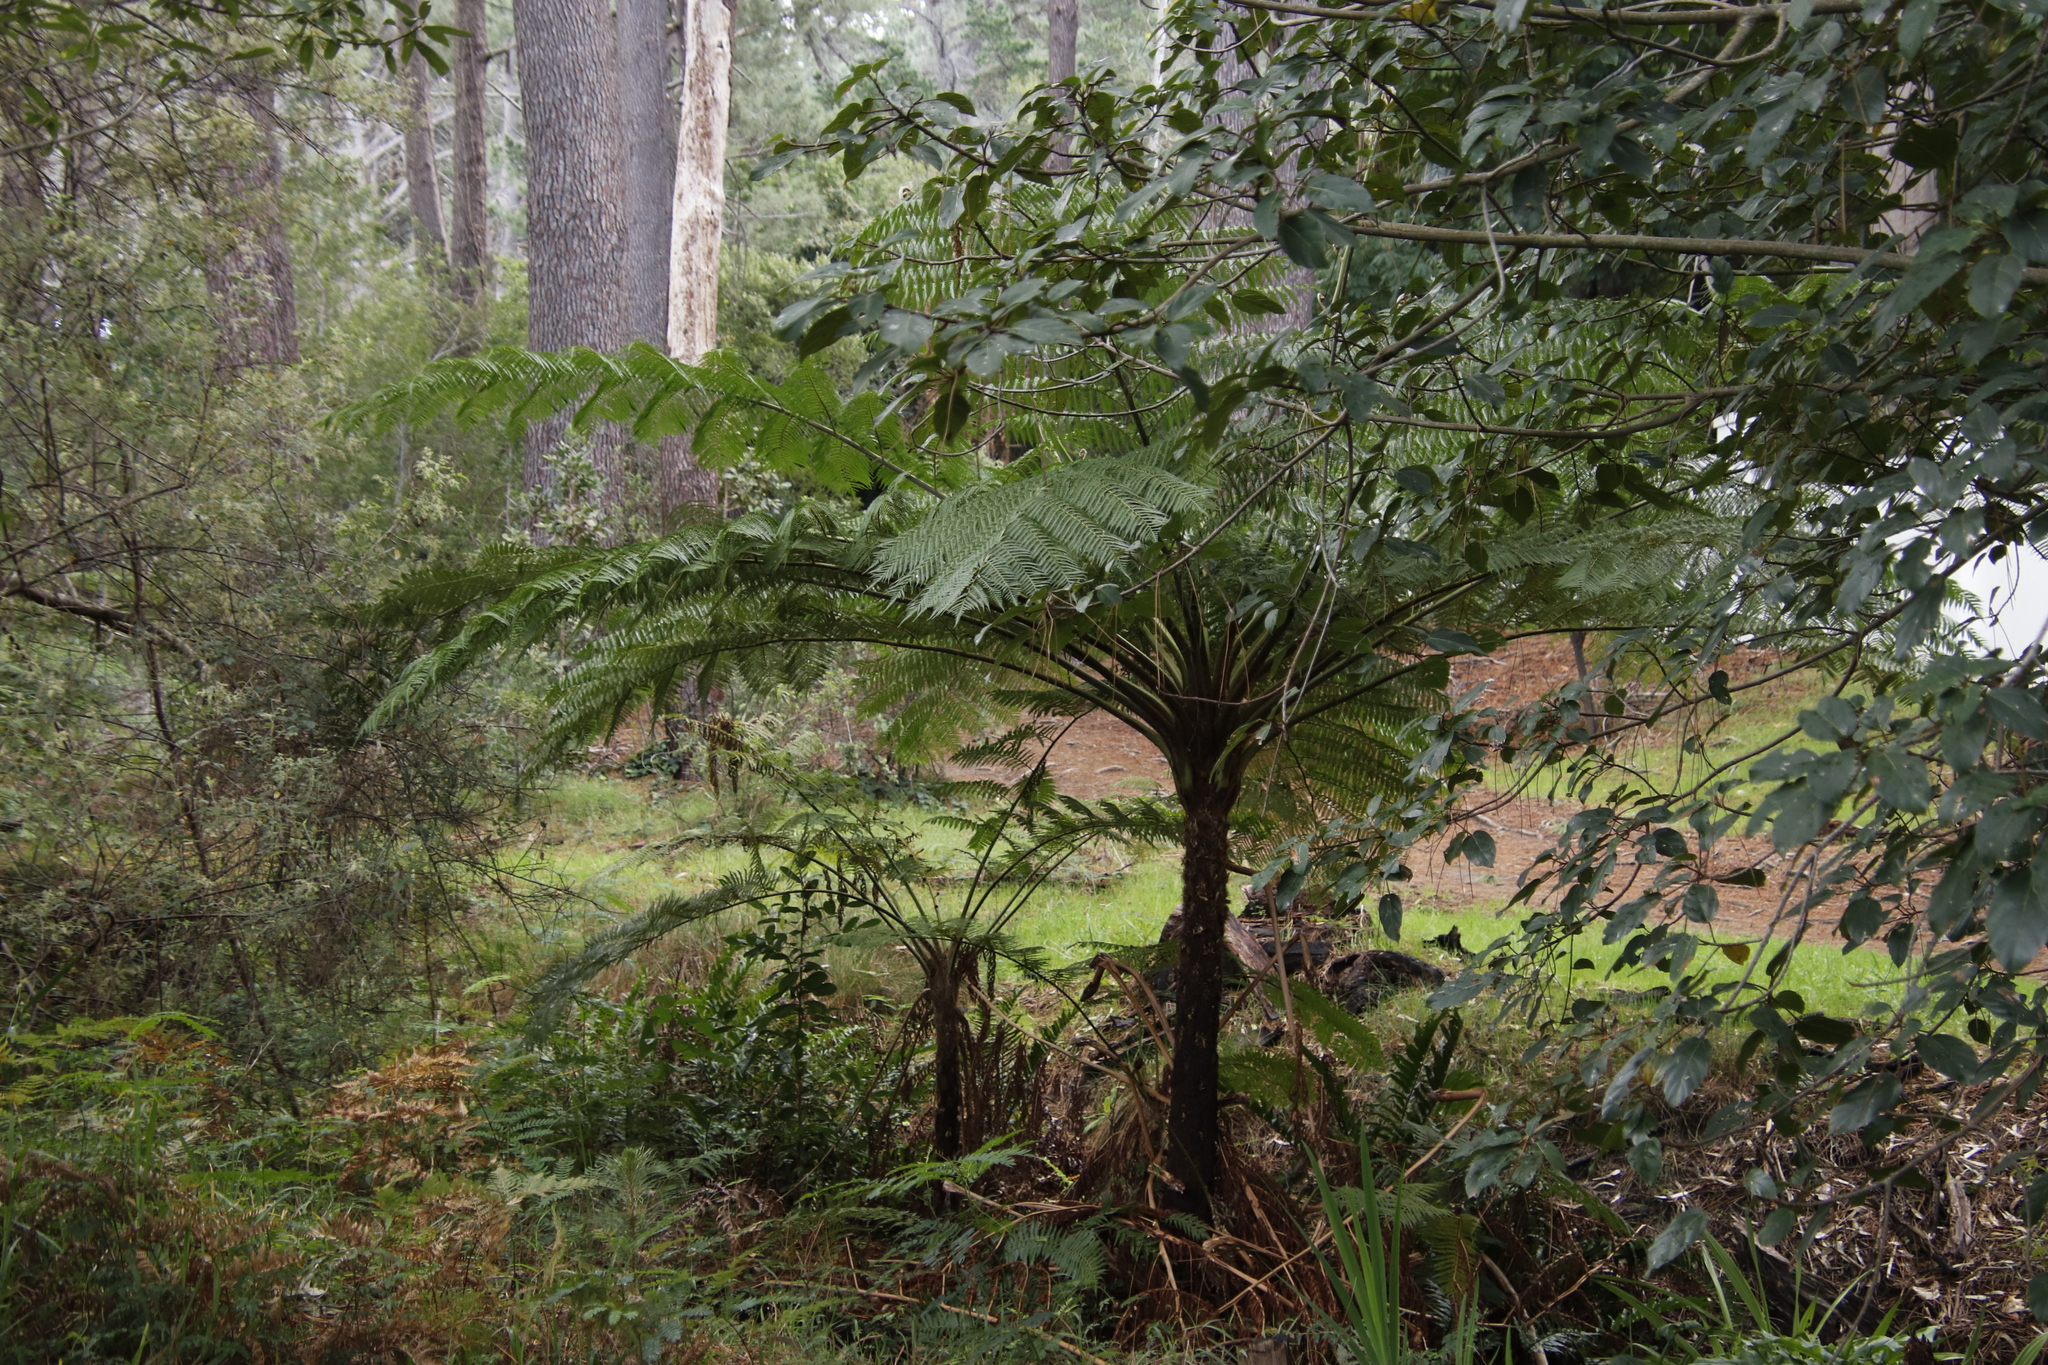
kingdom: Plantae
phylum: Tracheophyta
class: Polypodiopsida
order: Cyatheales
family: Cyatheaceae
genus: Sphaeropteris
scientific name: Sphaeropteris cooperi
